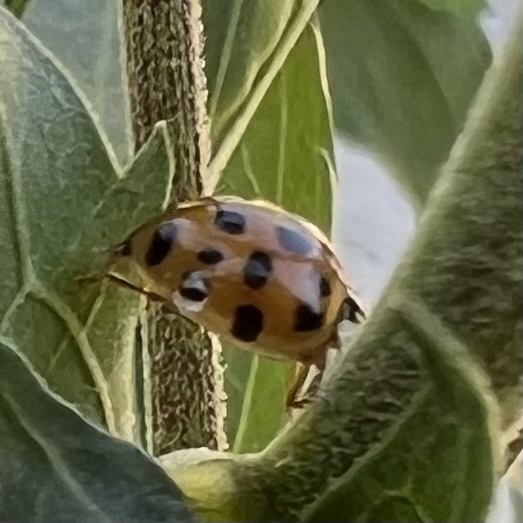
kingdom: Animalia
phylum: Arthropoda
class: Insecta
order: Coleoptera
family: Coccinellidae
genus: Harmonia
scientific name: Harmonia axyridis
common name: Harlequin ladybird
